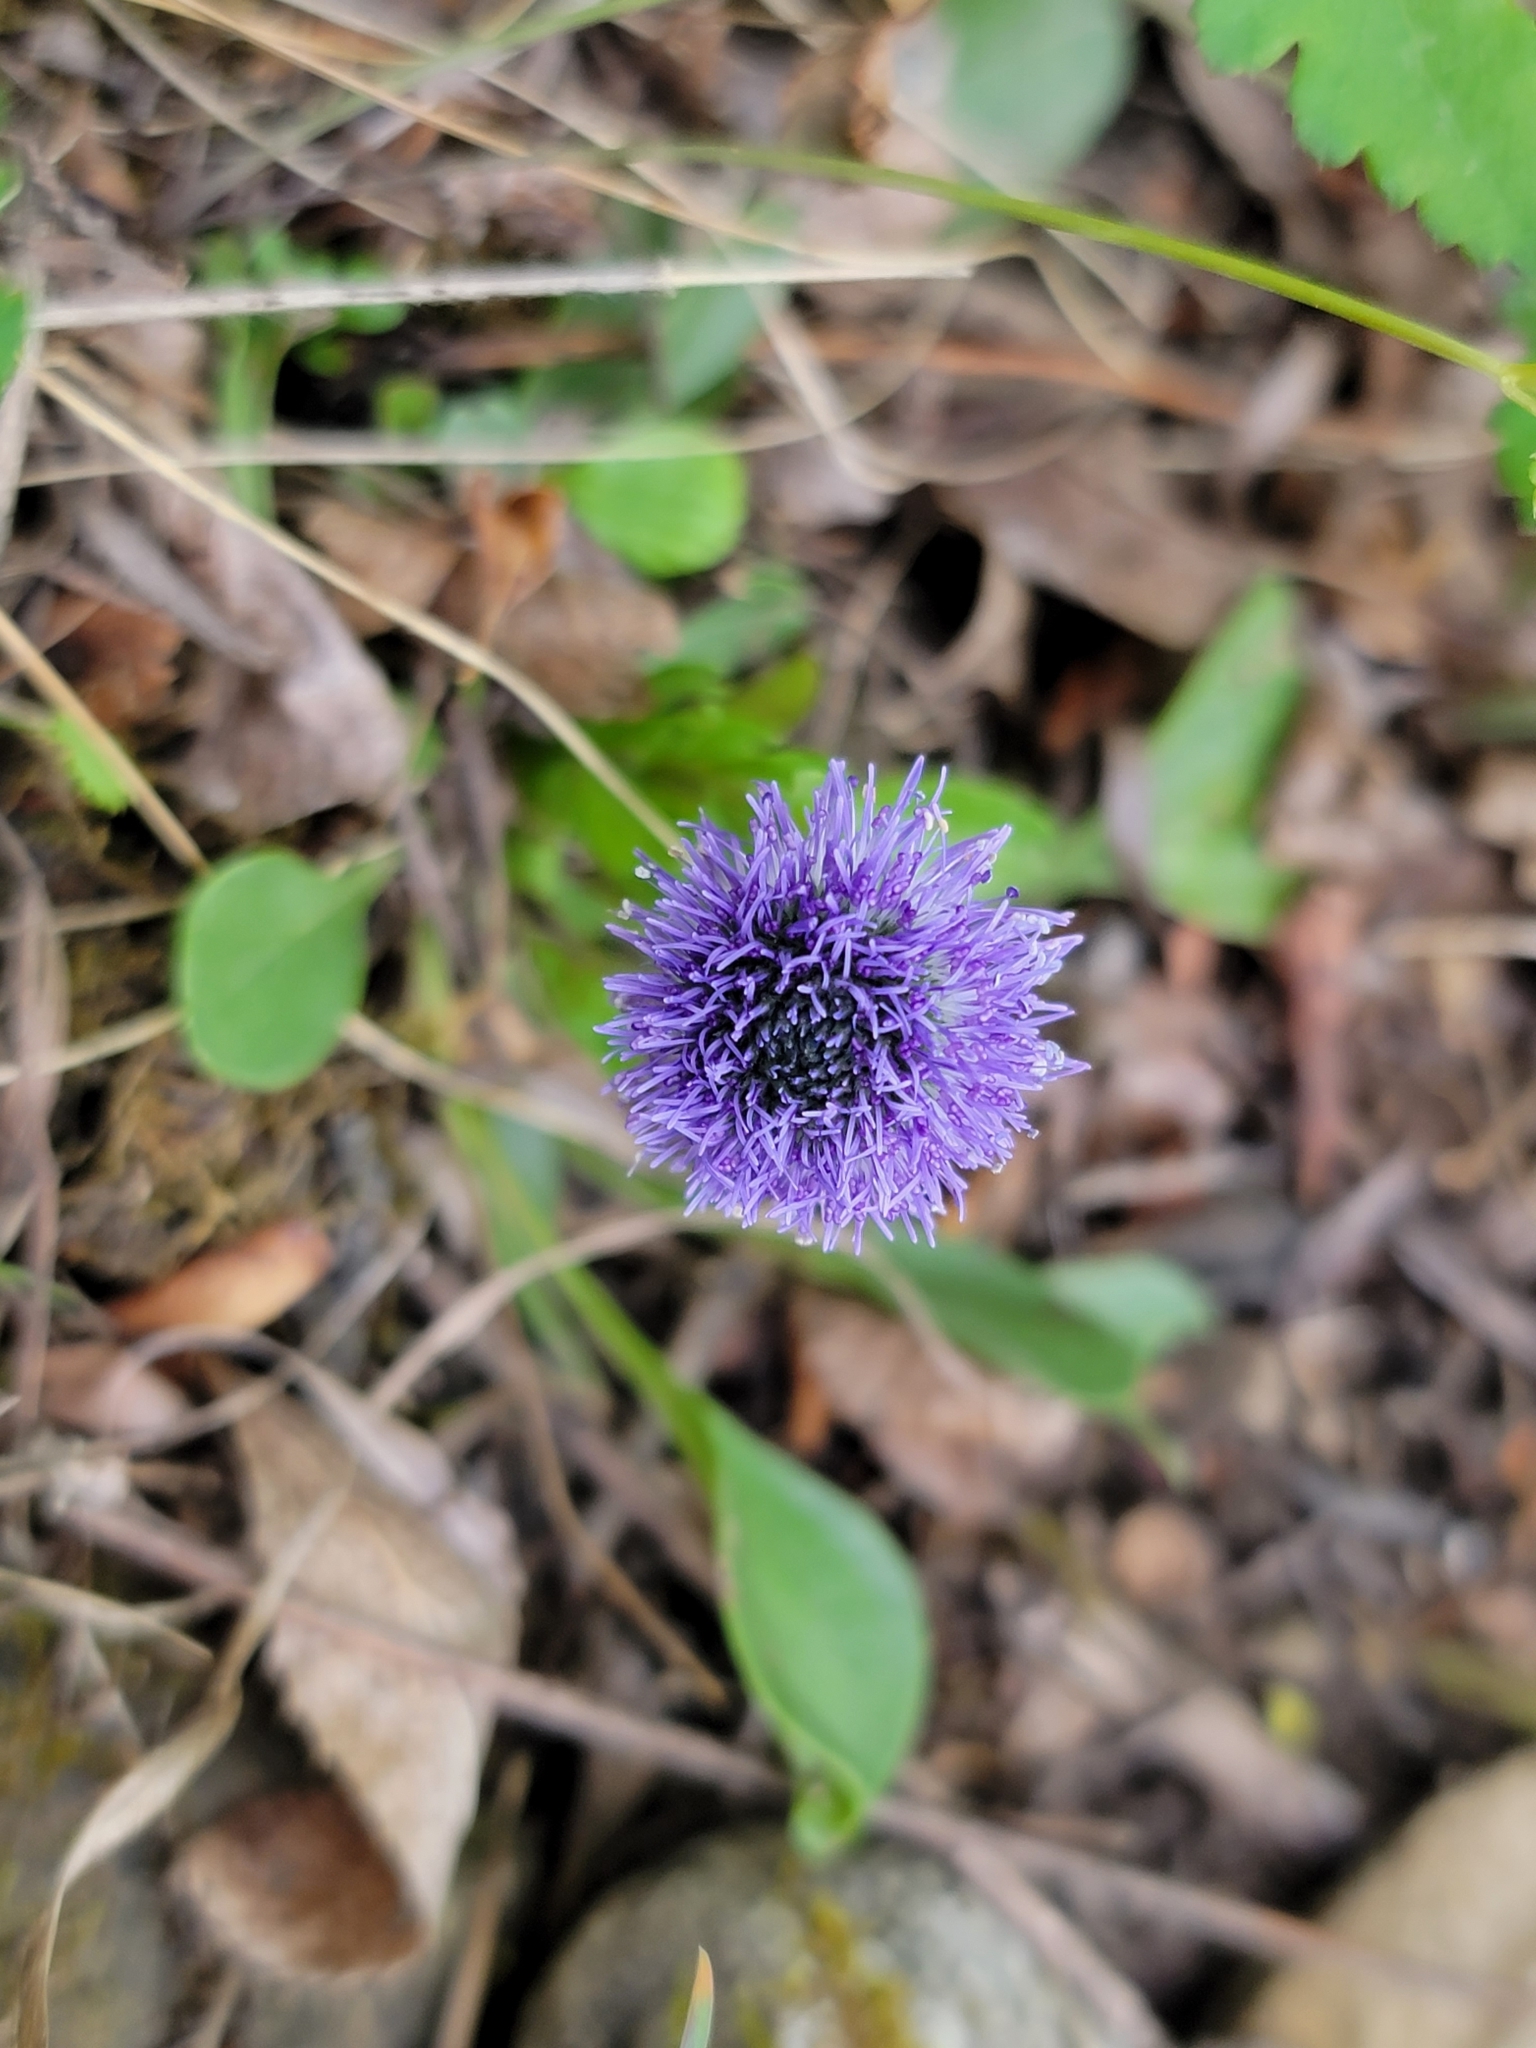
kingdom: Plantae
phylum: Tracheophyta
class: Magnoliopsida
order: Lamiales
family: Plantaginaceae
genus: Globularia
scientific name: Globularia bisnagarica
